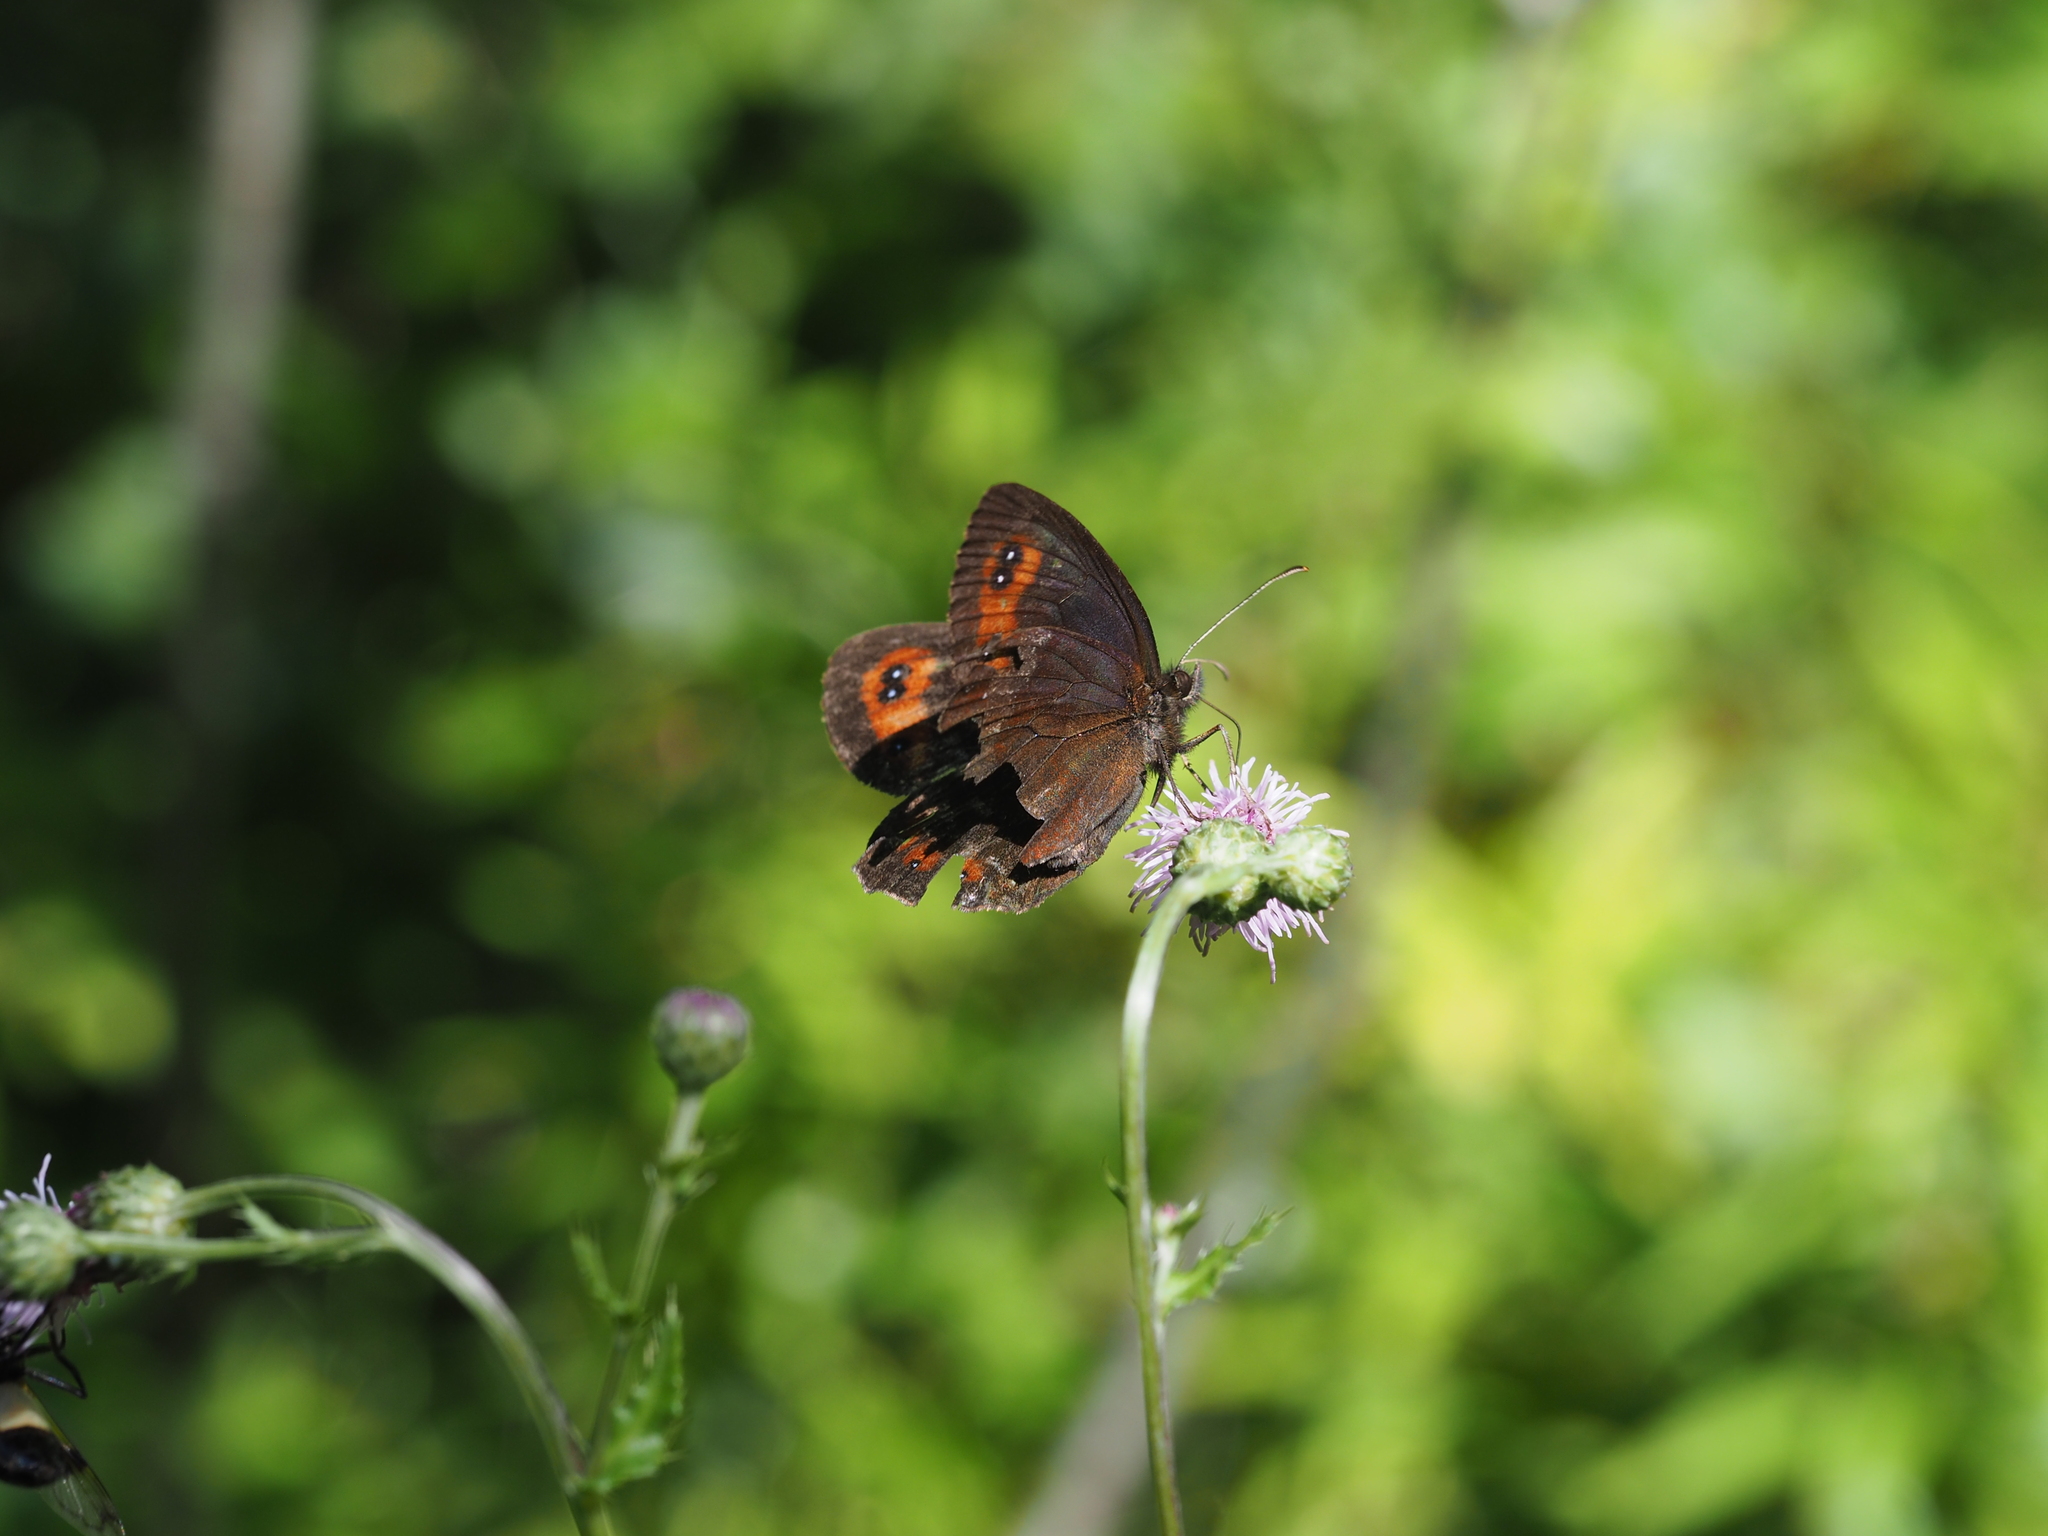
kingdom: Animalia
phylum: Arthropoda
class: Insecta
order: Lepidoptera
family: Nymphalidae
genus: Erebia
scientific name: Erebia aethiops
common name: Scotch argus
